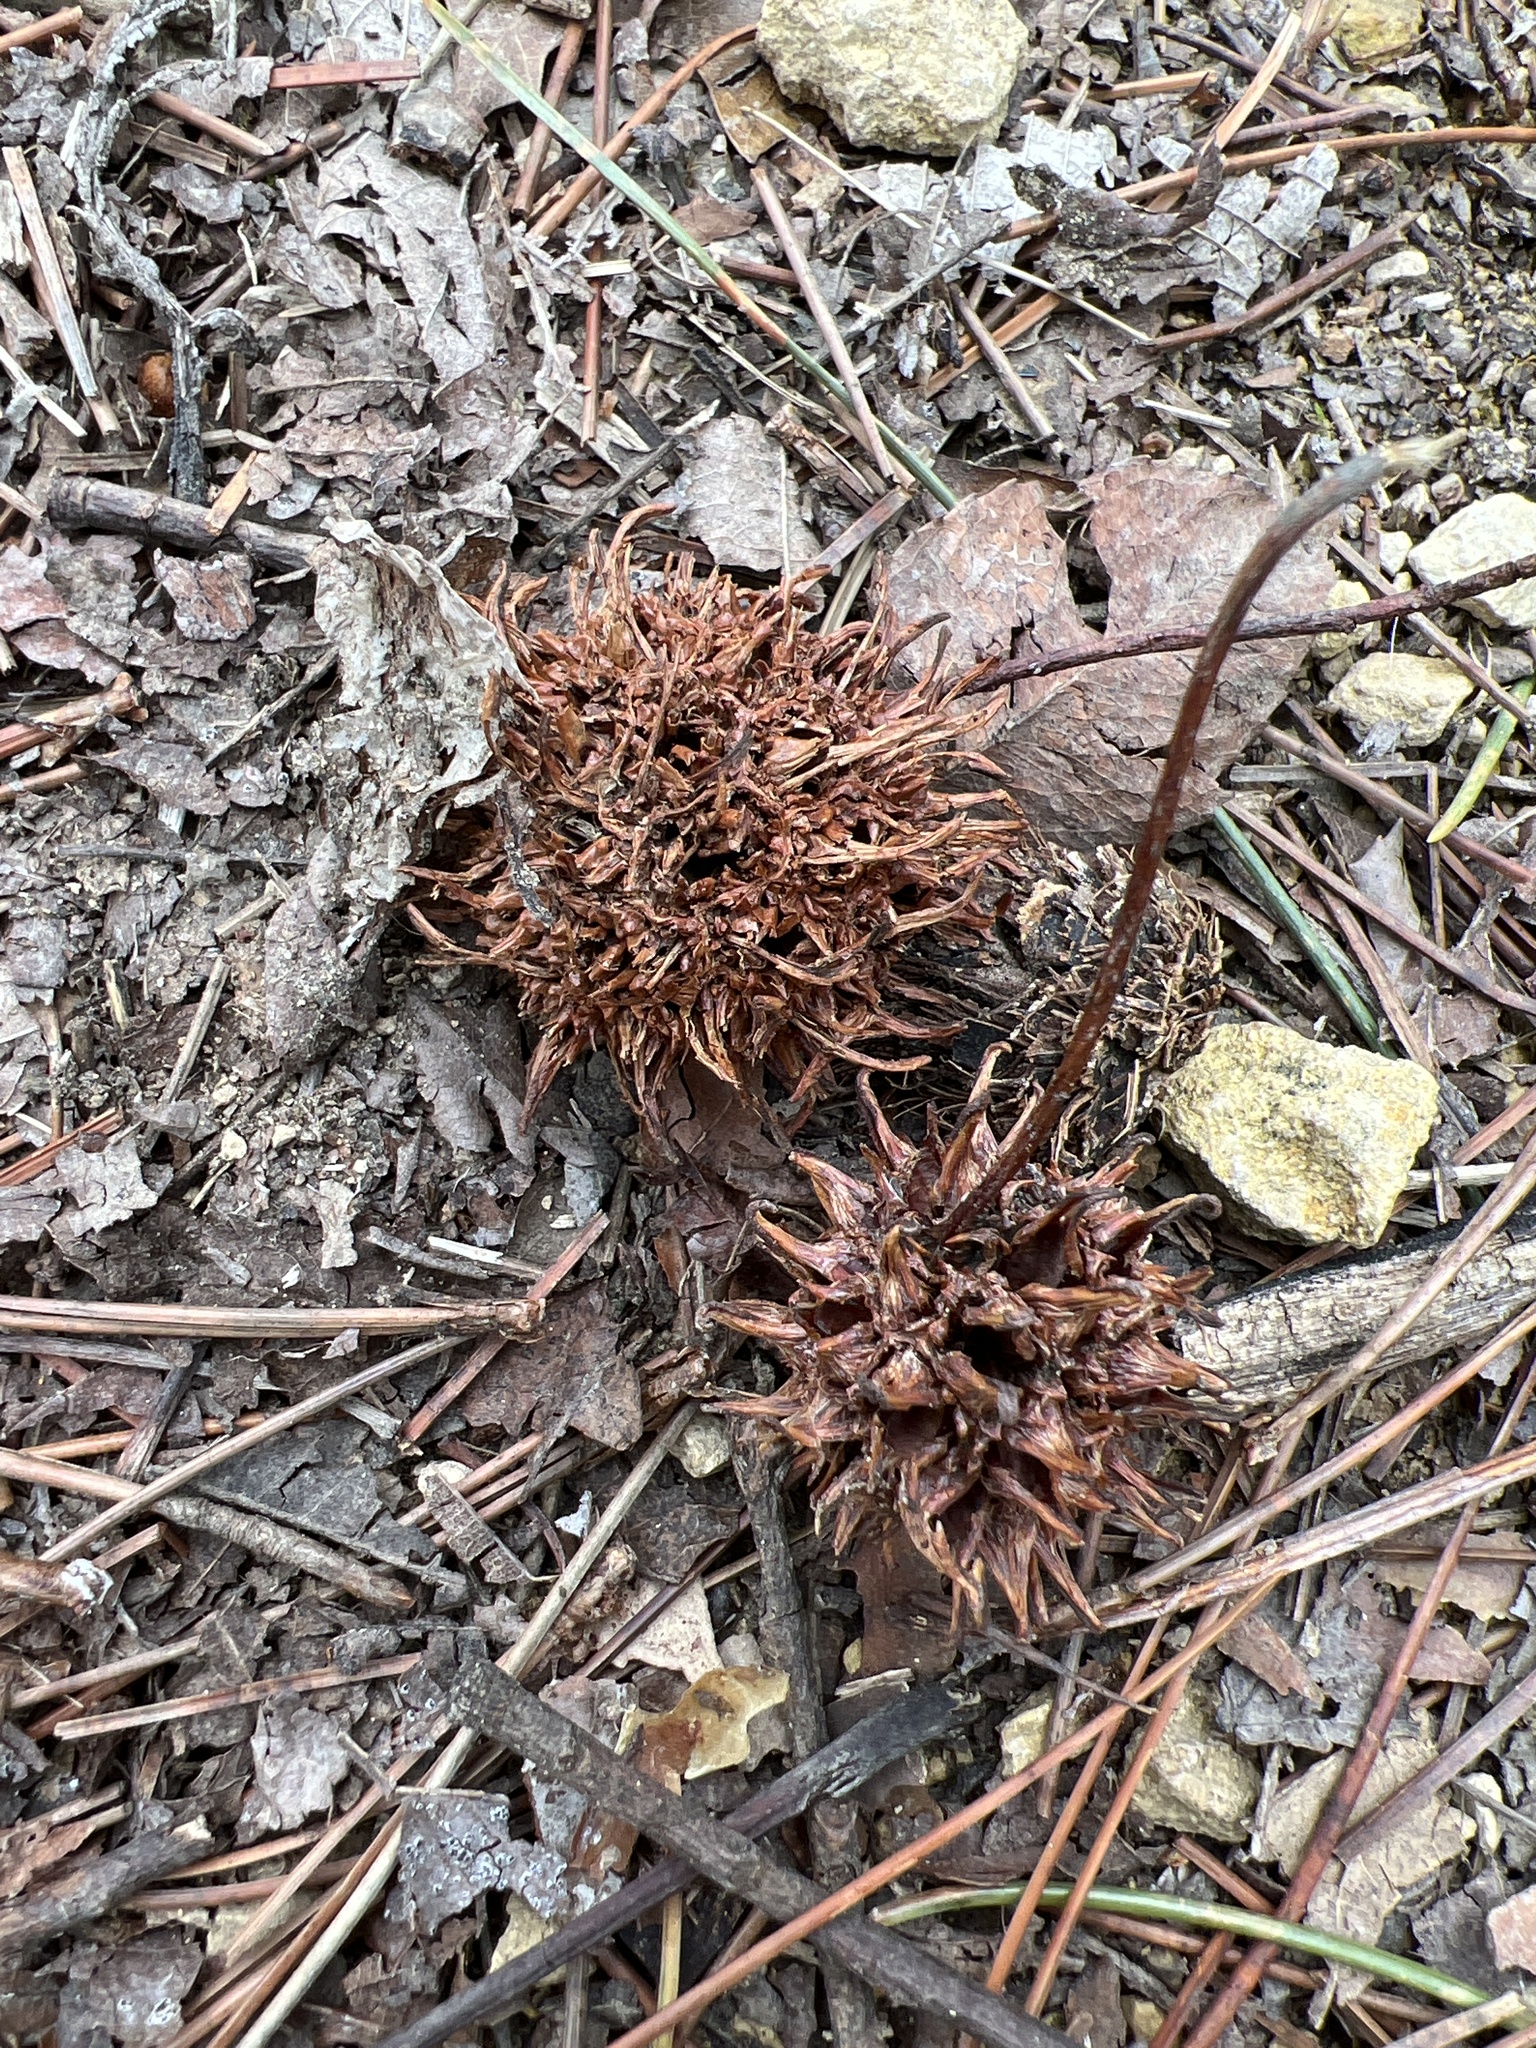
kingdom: Plantae
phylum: Tracheophyta
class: Magnoliopsida
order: Saxifragales
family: Altingiaceae
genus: Liquidambar
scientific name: Liquidambar styraciflua
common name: Sweet gum
